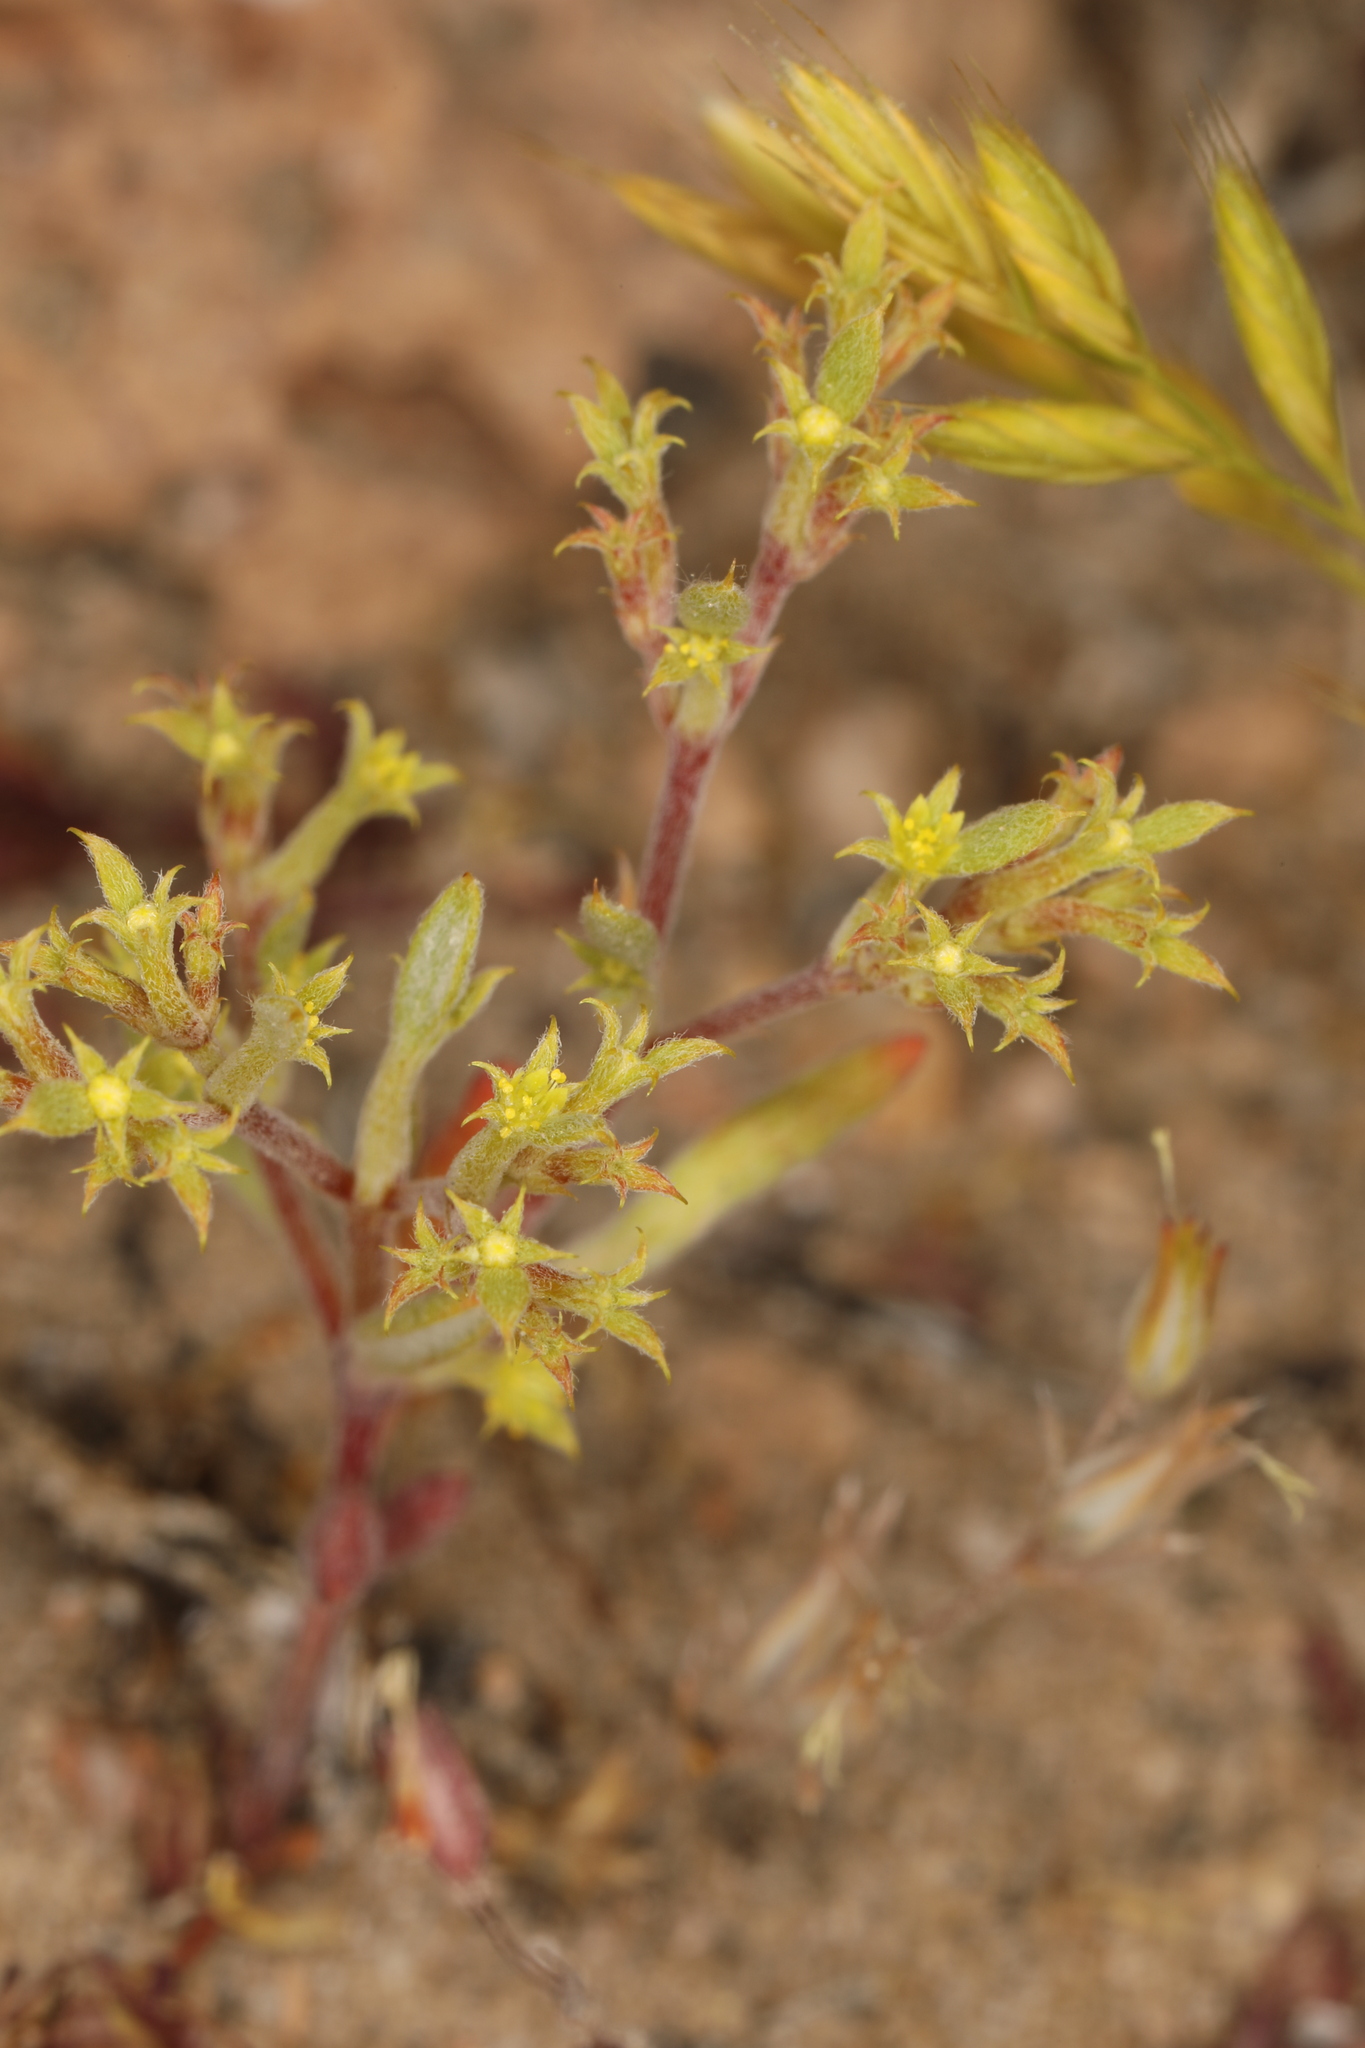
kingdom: Plantae
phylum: Tracheophyta
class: Magnoliopsida
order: Caryophyllales
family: Polygonaceae
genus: Chorizanthe
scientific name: Chorizanthe watsonii
